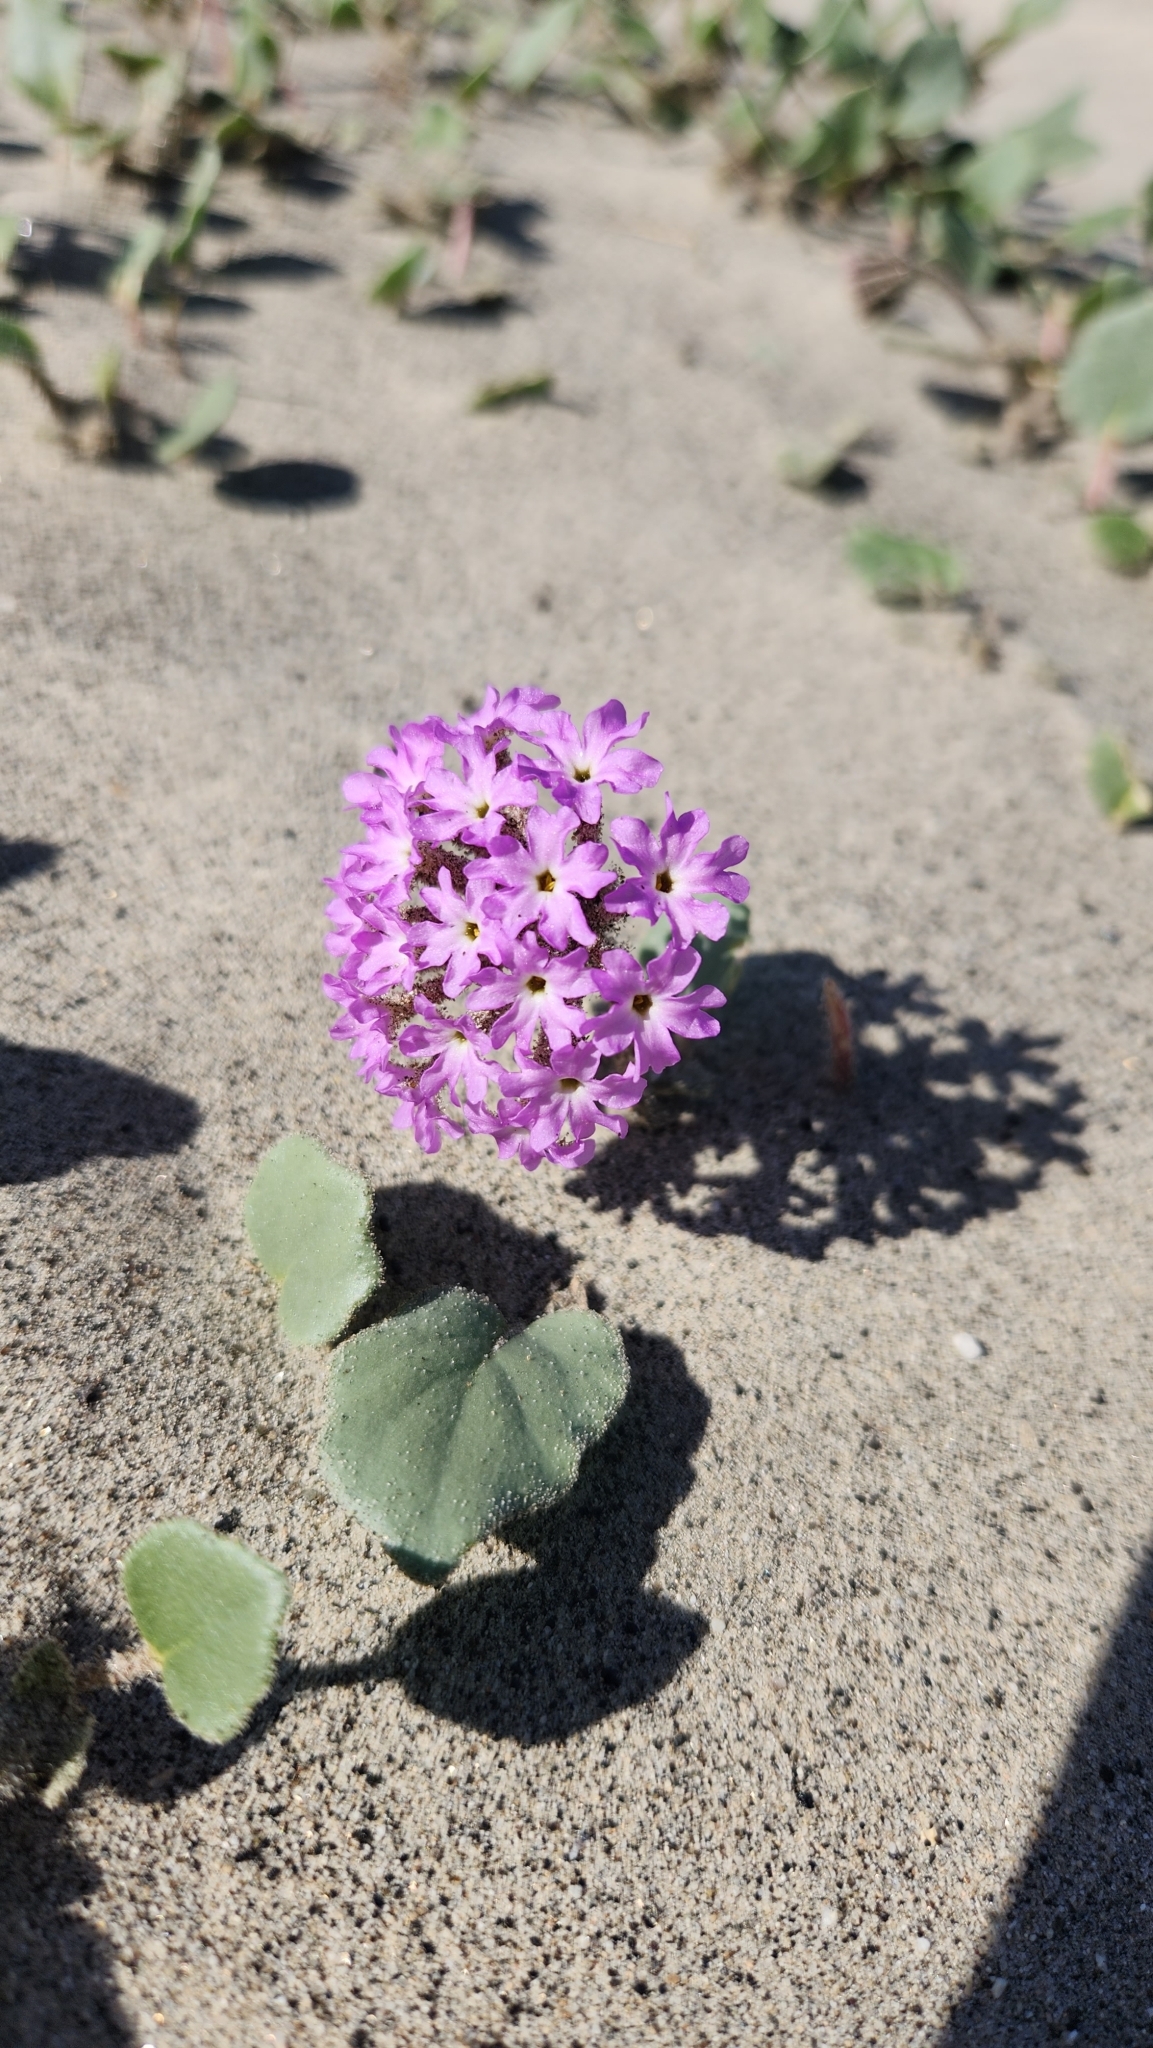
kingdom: Plantae
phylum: Tracheophyta
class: Magnoliopsida
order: Caryophyllales
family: Nyctaginaceae
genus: Abronia
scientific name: Abronia villosa
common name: Desert sand-verbena
